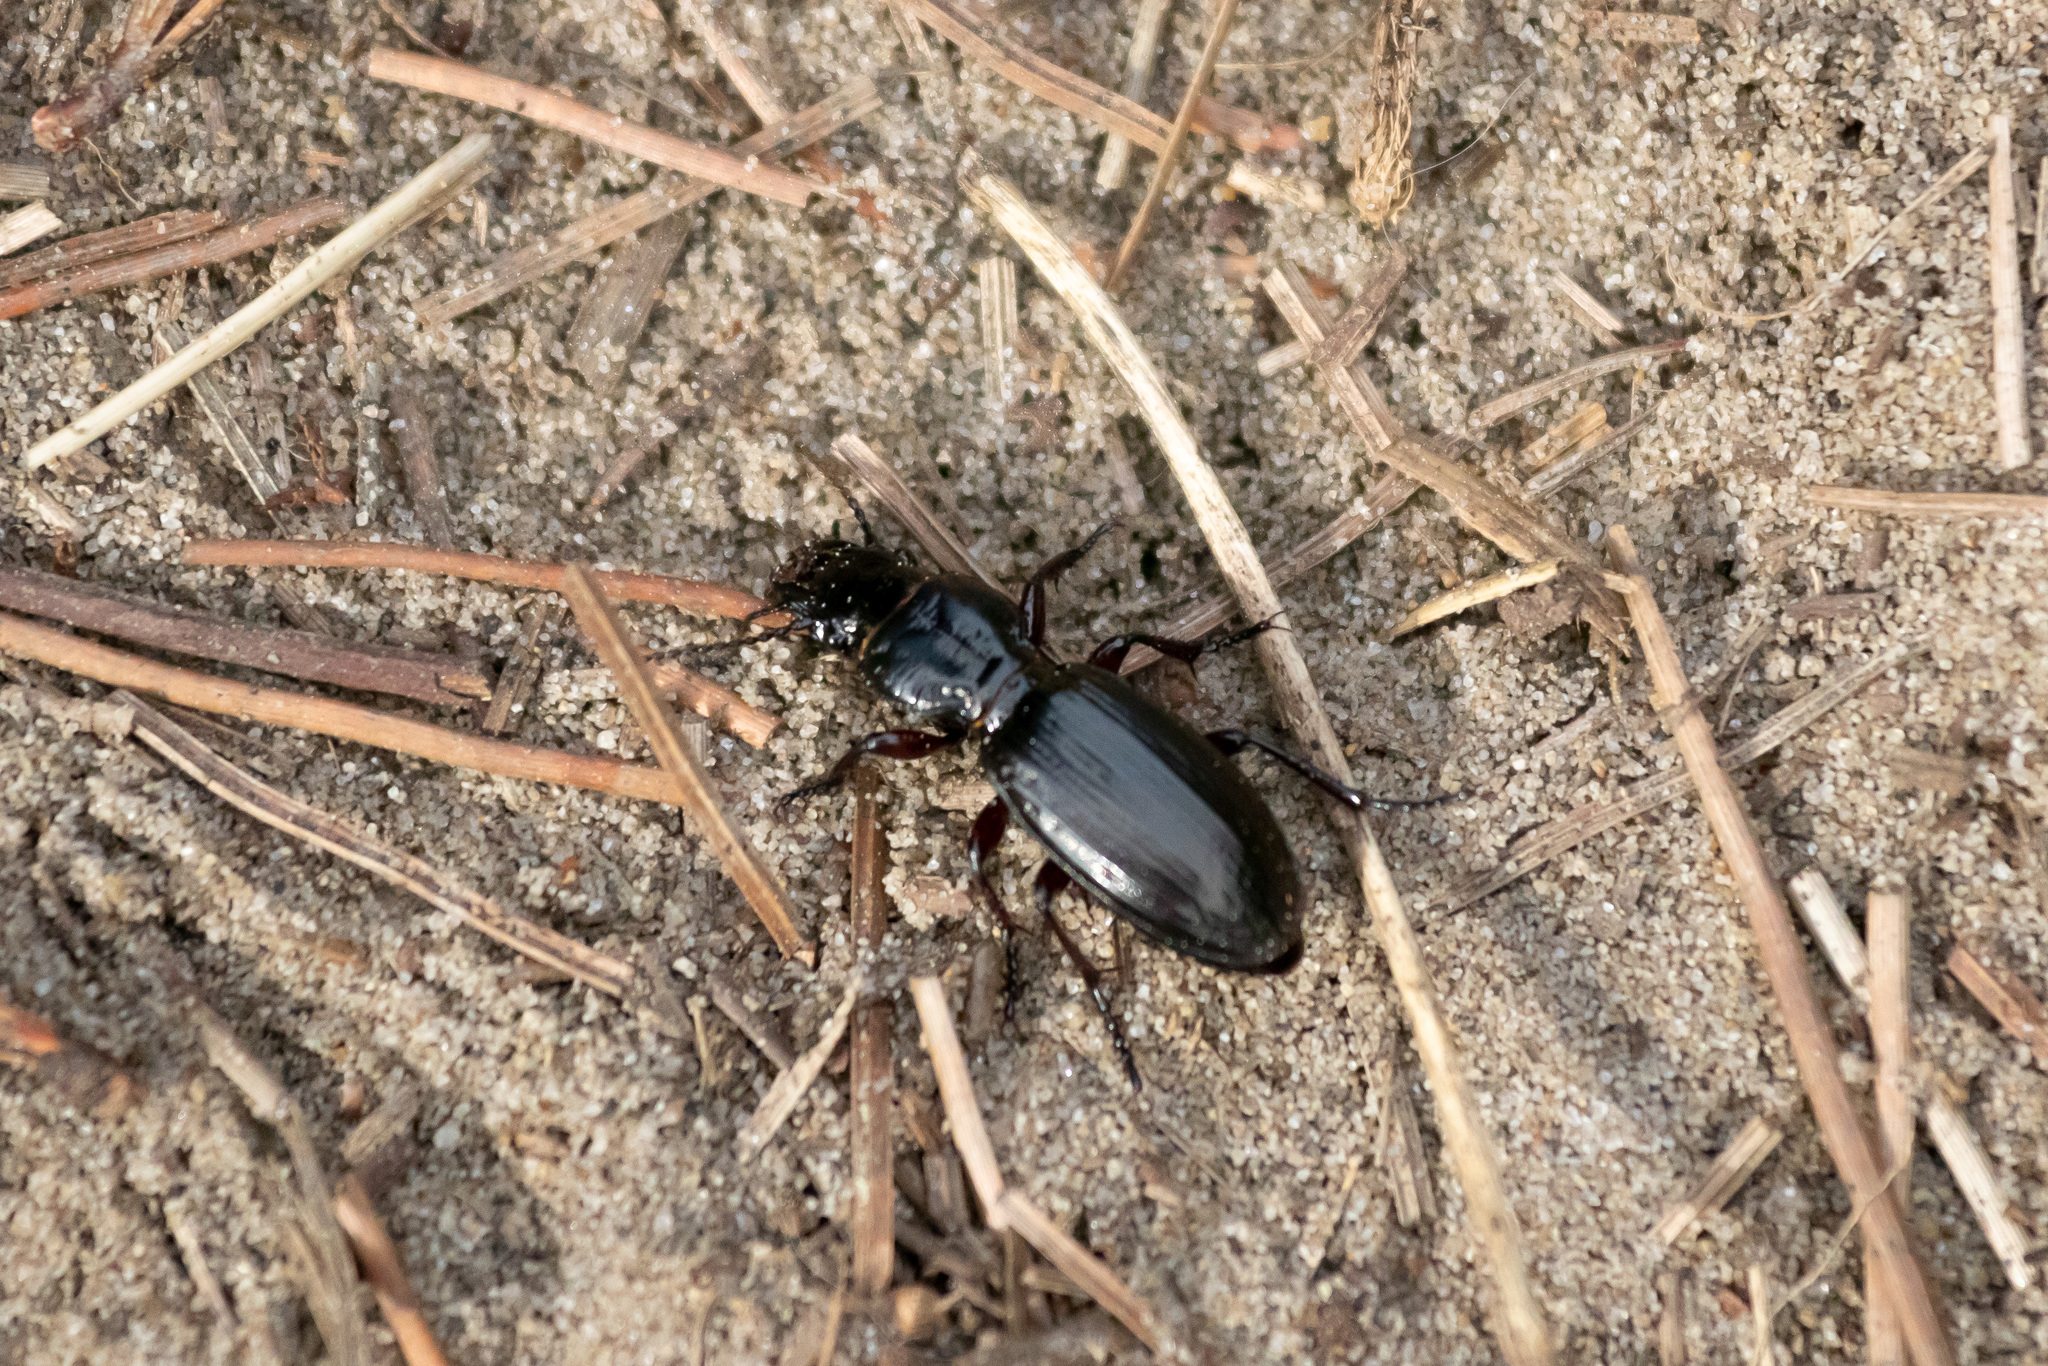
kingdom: Animalia
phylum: Arthropoda
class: Insecta
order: Coleoptera
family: Carabidae
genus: Mecodema
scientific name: Mecodema alternans
